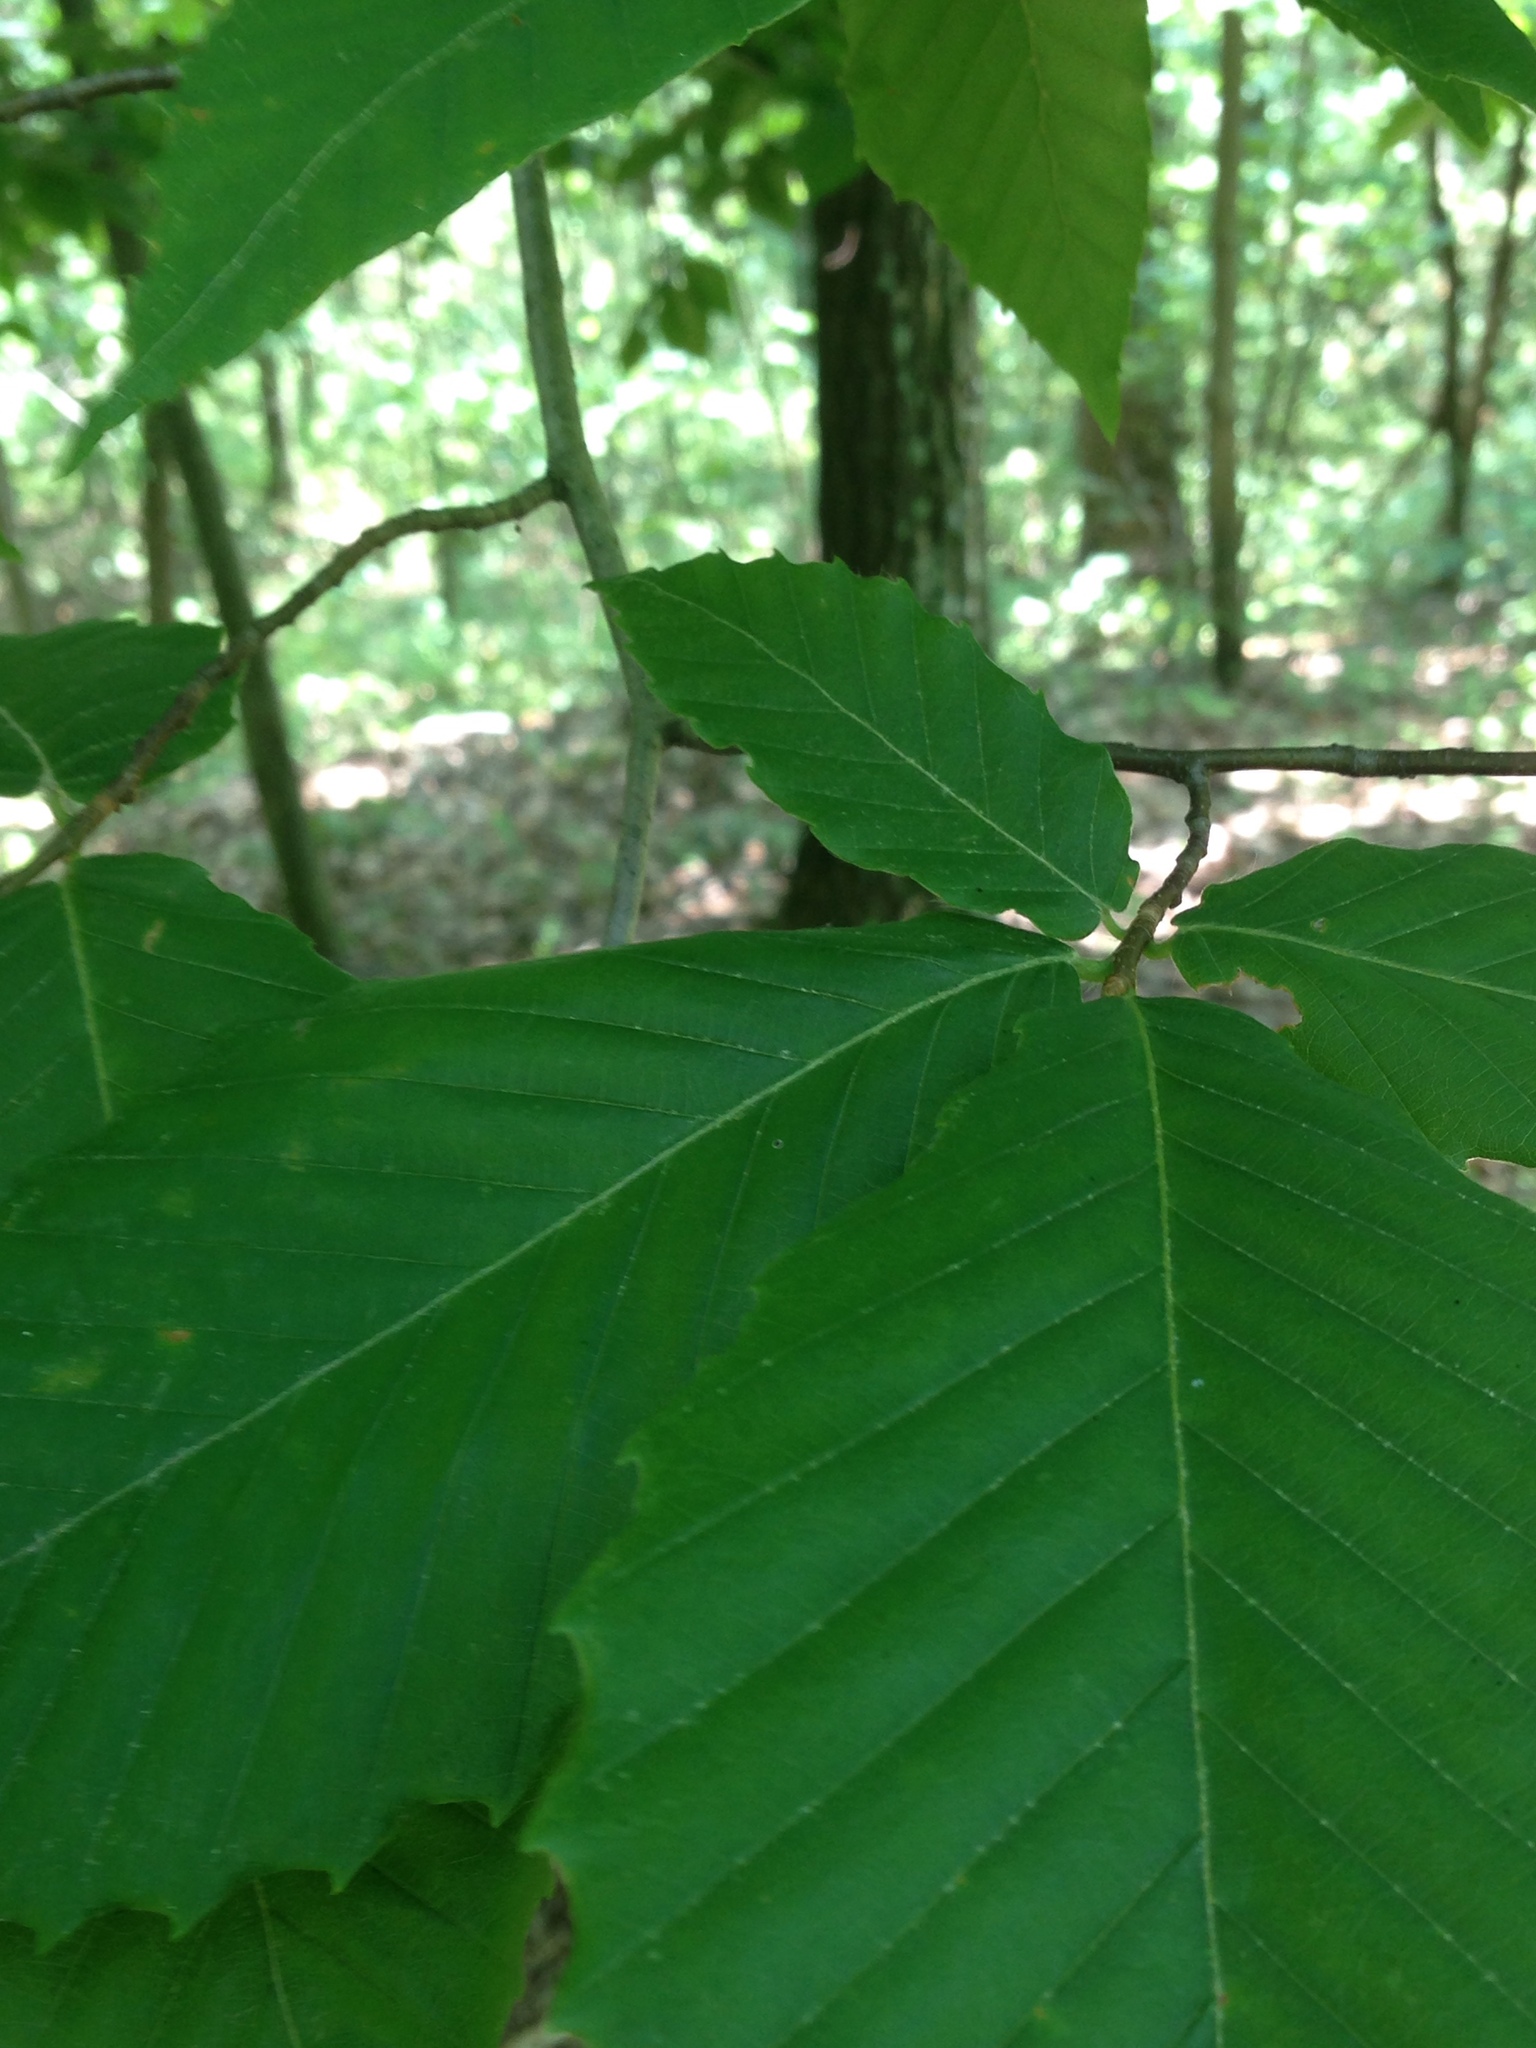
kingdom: Plantae
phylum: Tracheophyta
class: Magnoliopsida
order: Fagales
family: Fagaceae
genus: Fagus
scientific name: Fagus grandifolia
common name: American beech
